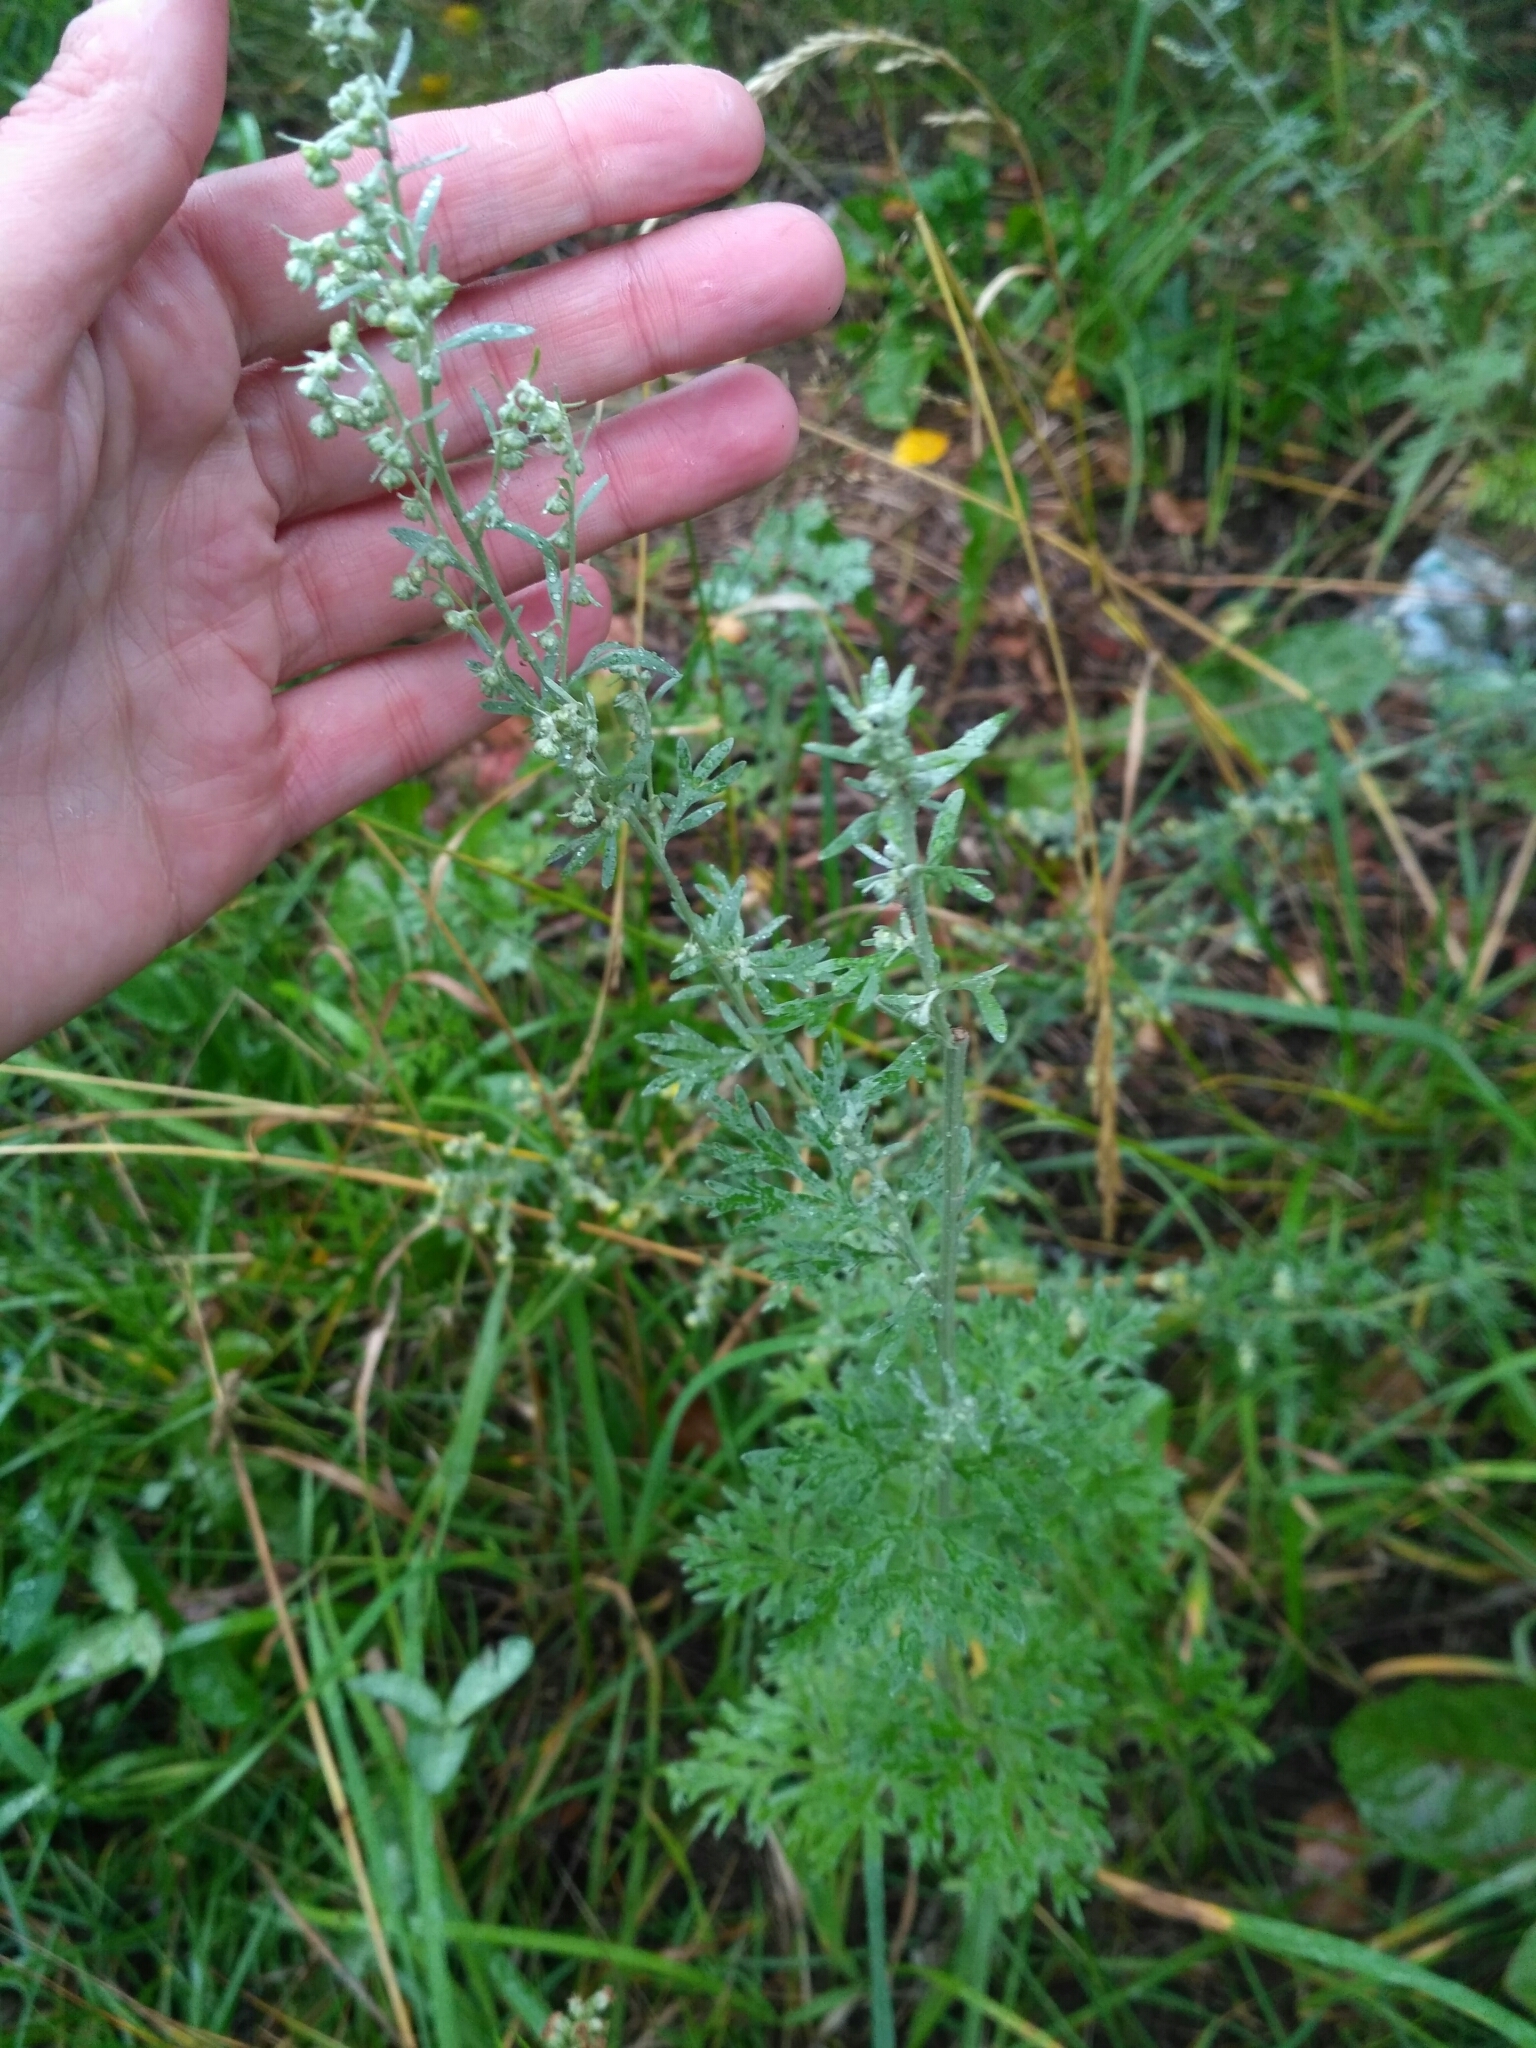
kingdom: Plantae
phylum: Tracheophyta
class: Magnoliopsida
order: Asterales
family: Asteraceae
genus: Artemisia
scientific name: Artemisia absinthium
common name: Wormwood
